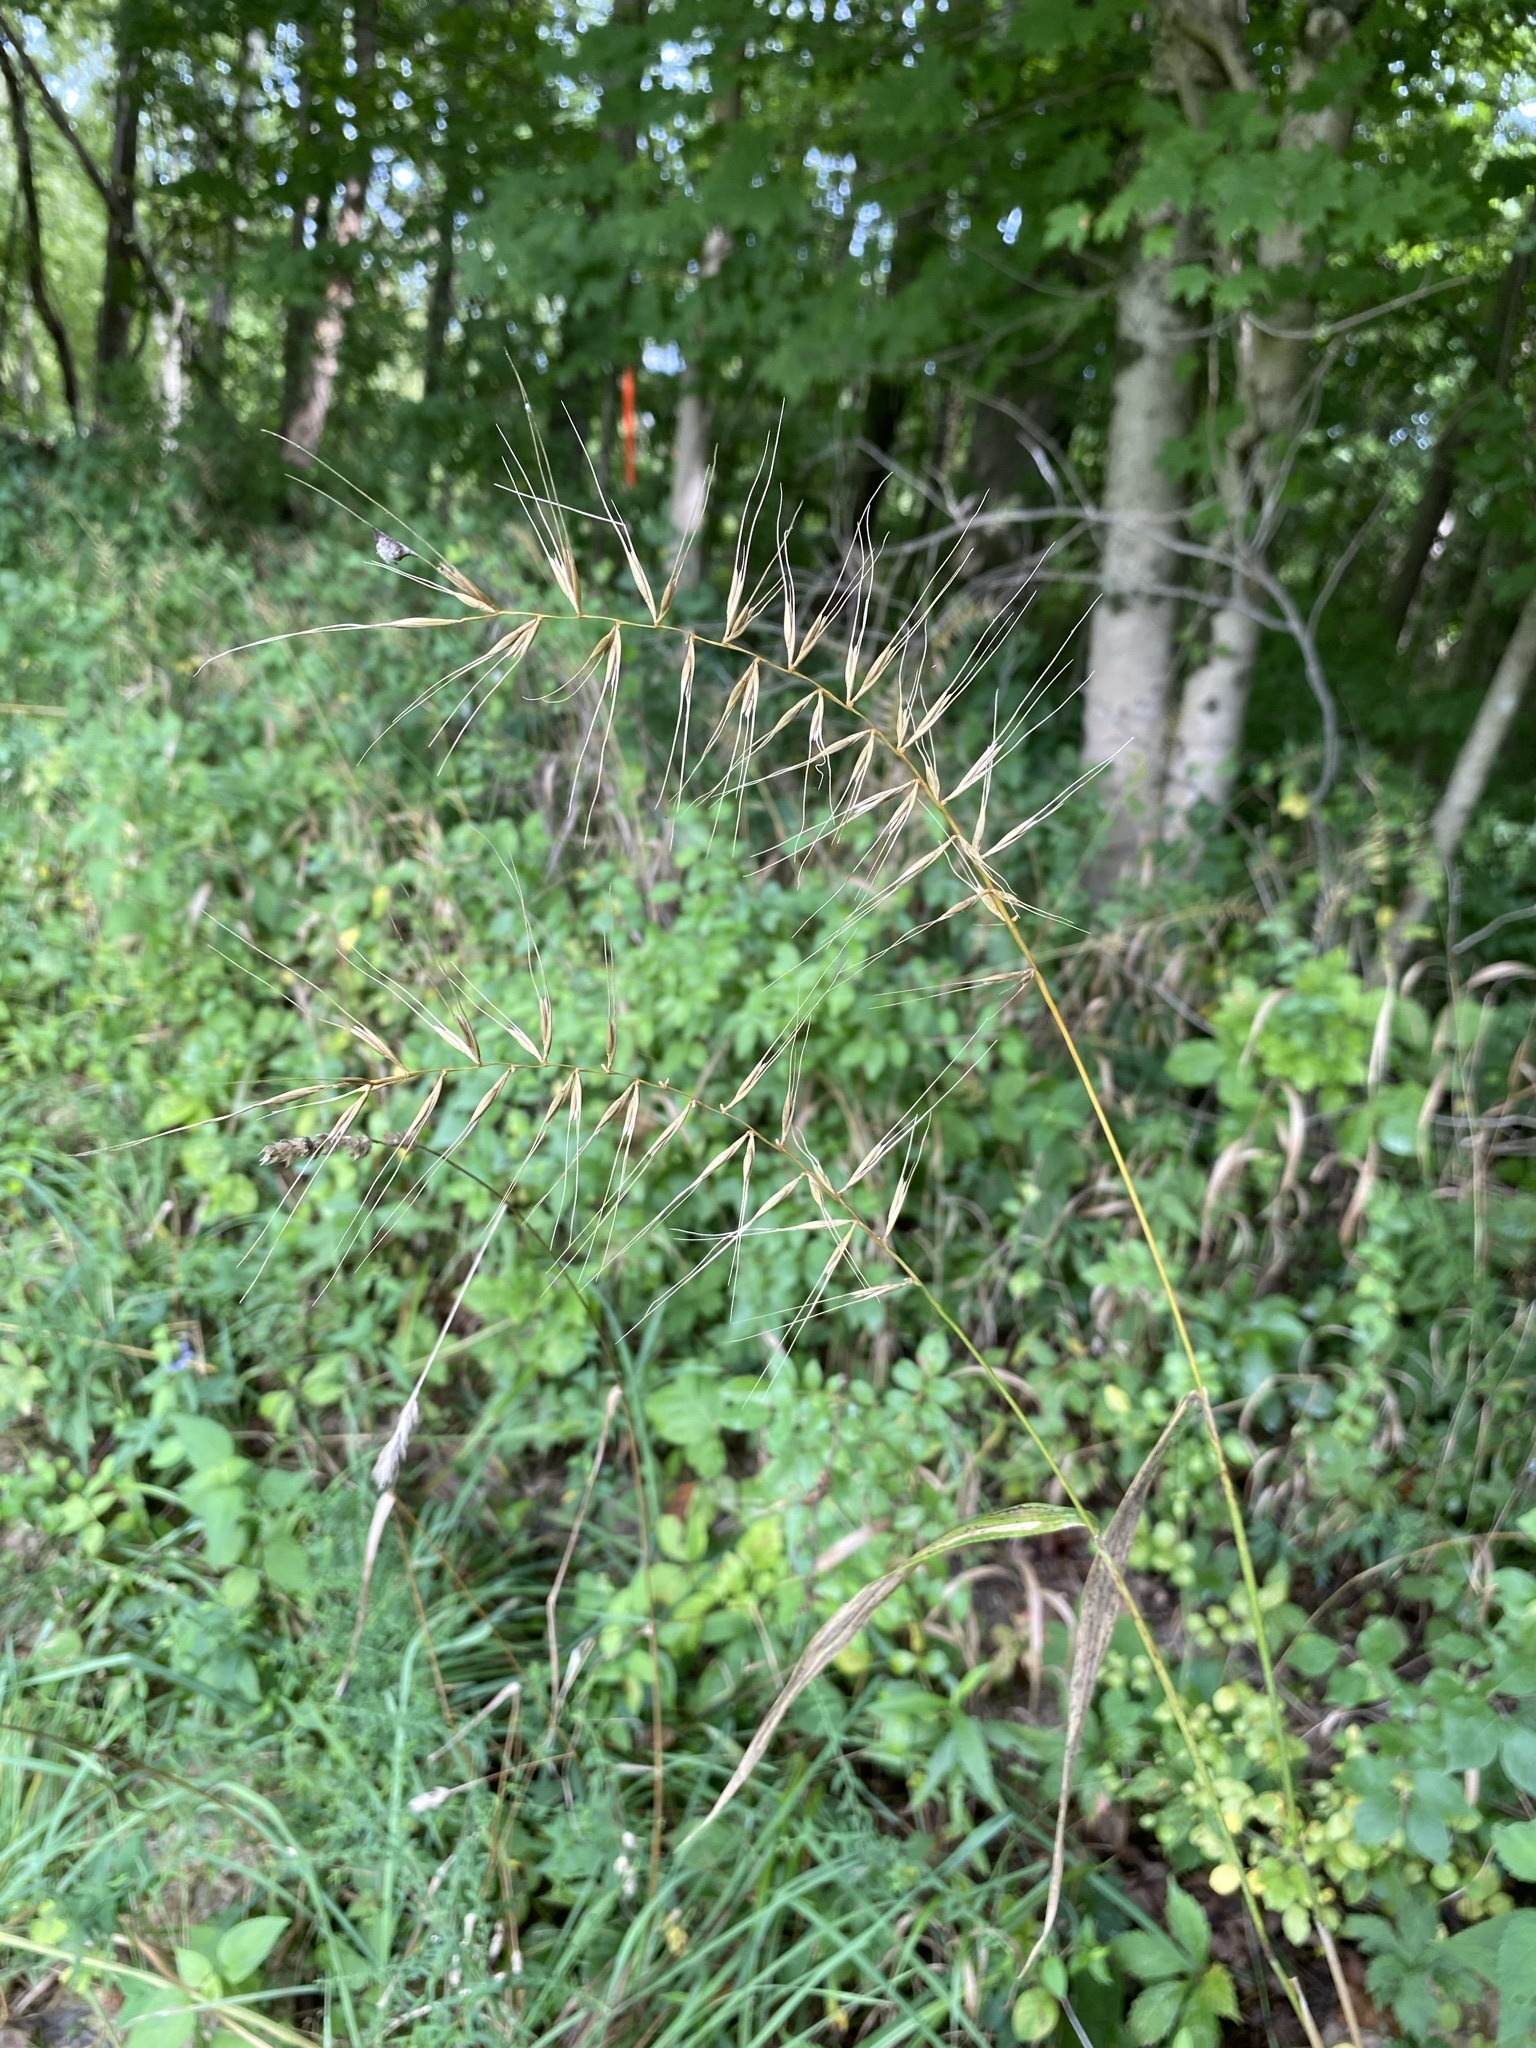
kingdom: Plantae
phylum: Tracheophyta
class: Liliopsida
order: Poales
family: Poaceae
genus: Elymus
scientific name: Elymus hystrix
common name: Bottlebrush grass
